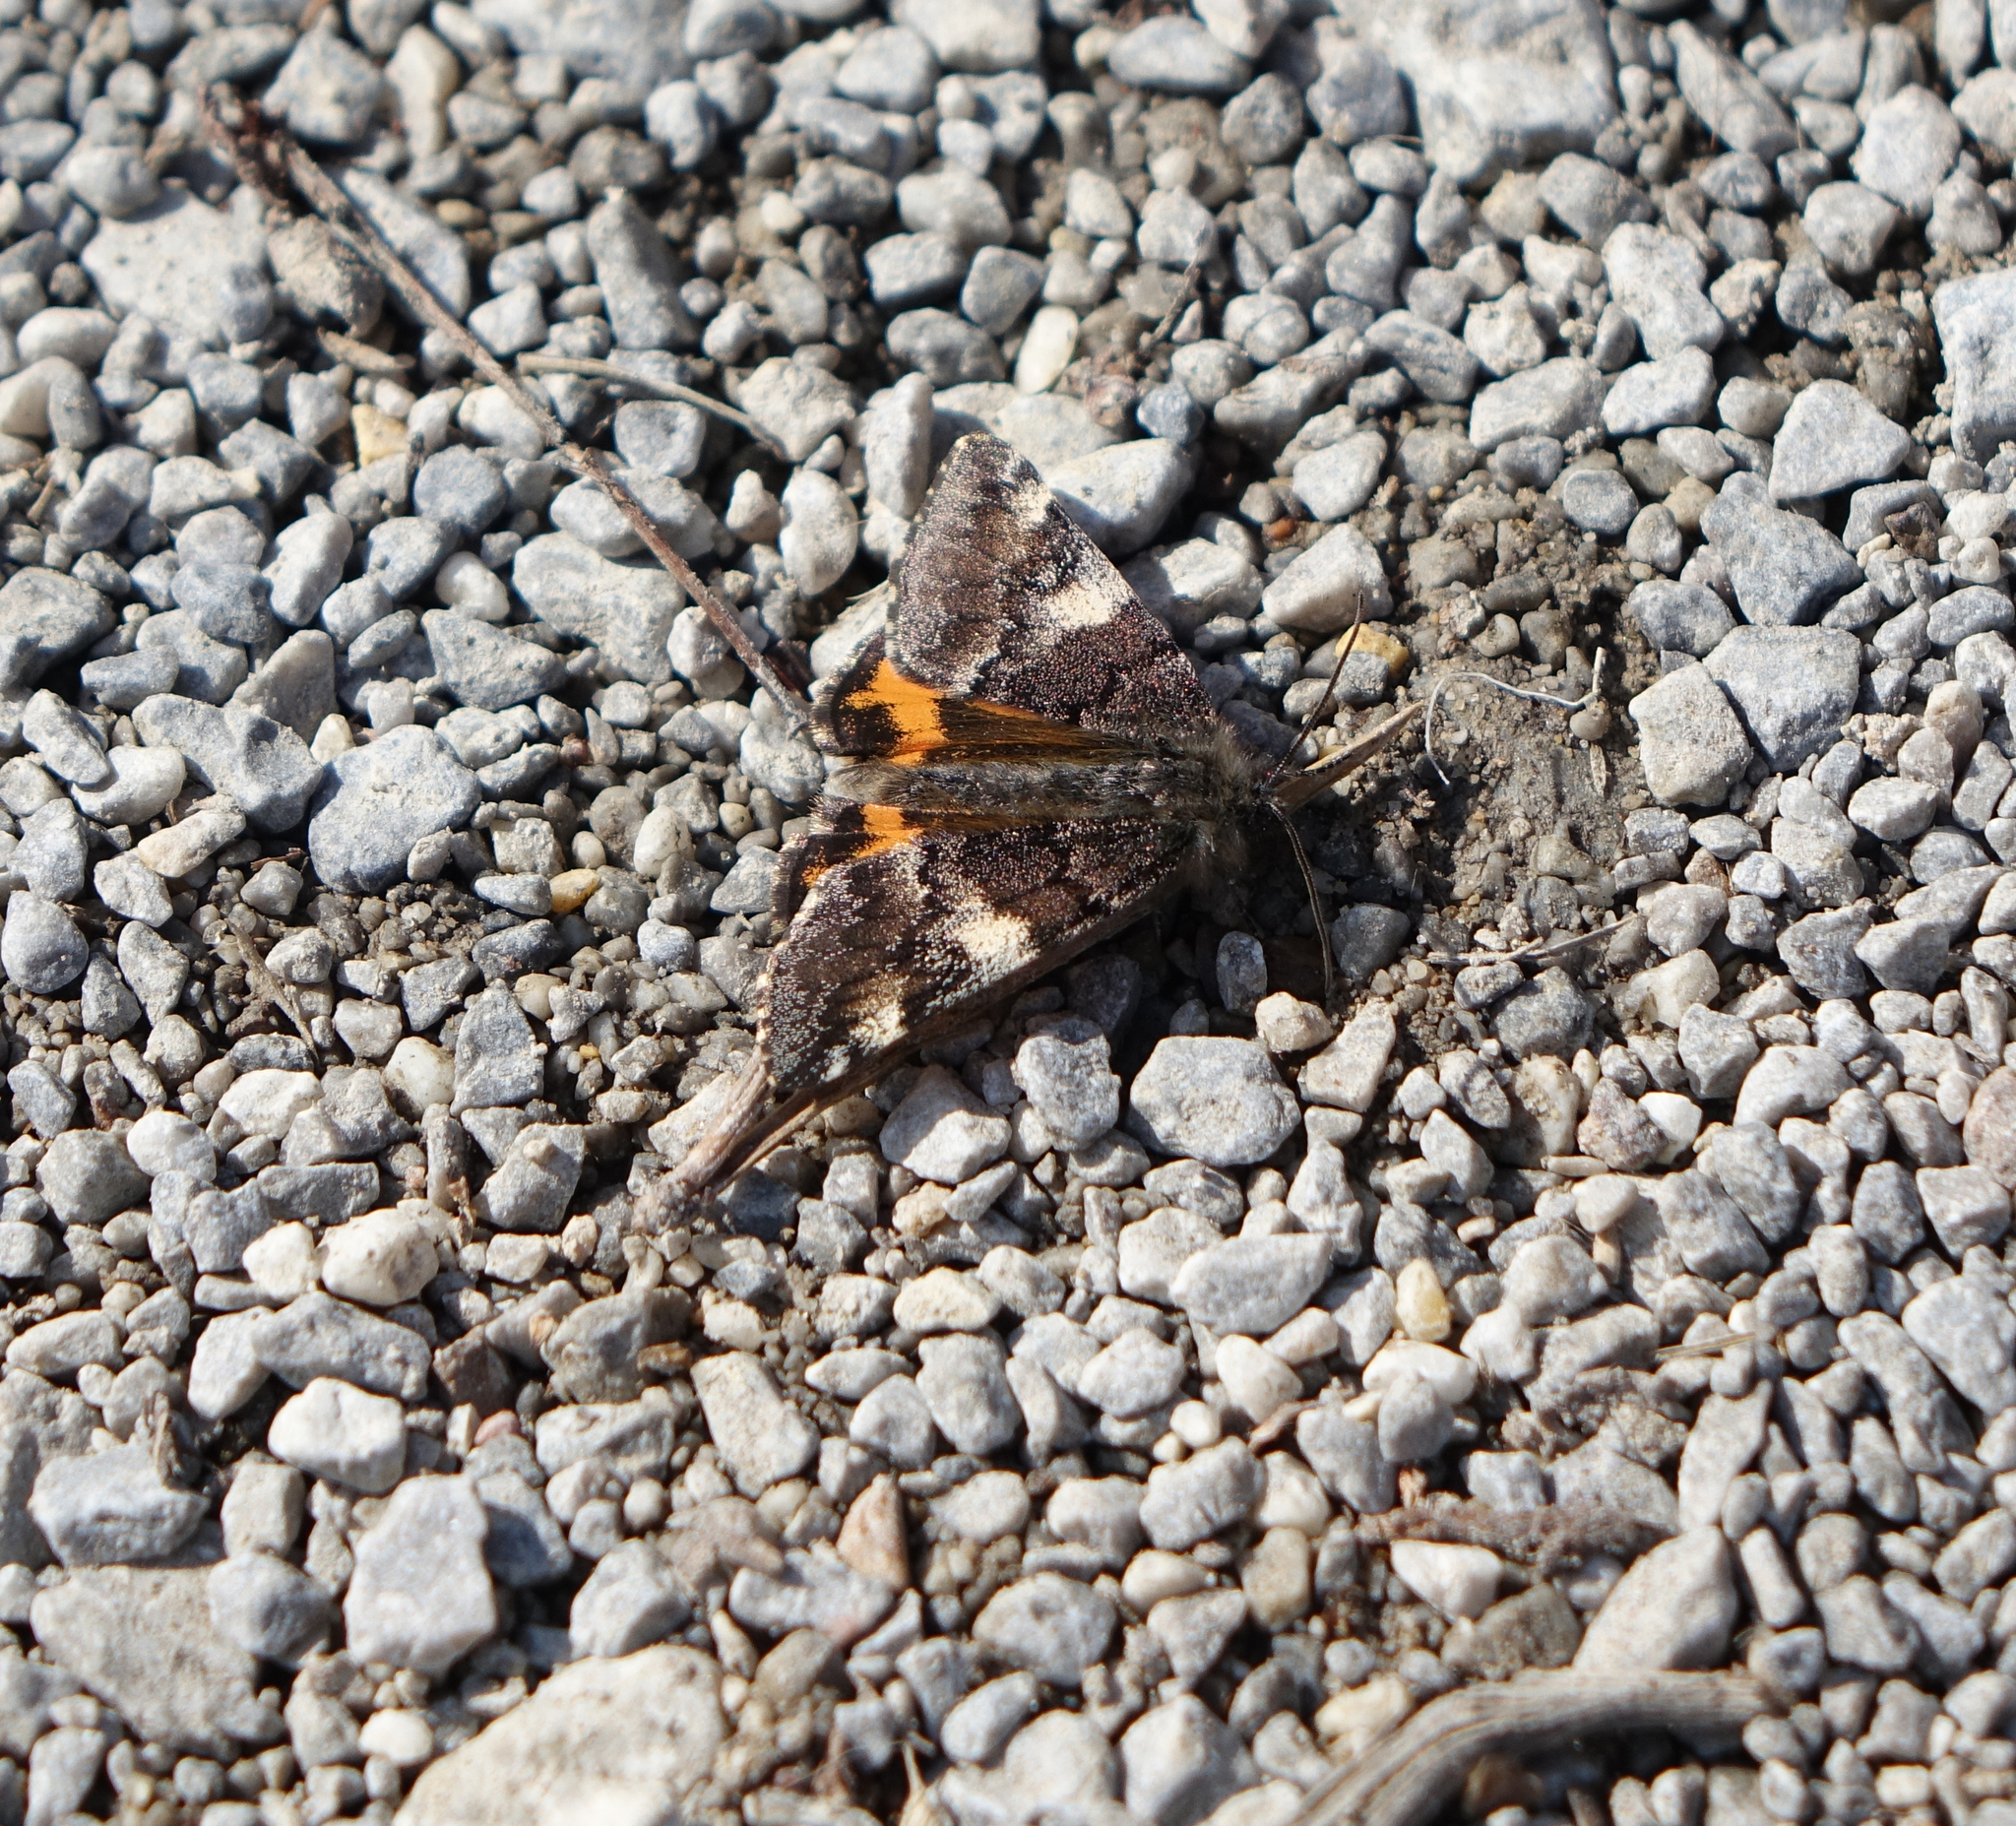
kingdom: Animalia
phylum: Arthropoda
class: Insecta
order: Lepidoptera
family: Geometridae
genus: Archiearis
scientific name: Archiearis parthenias
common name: Orange underwing
